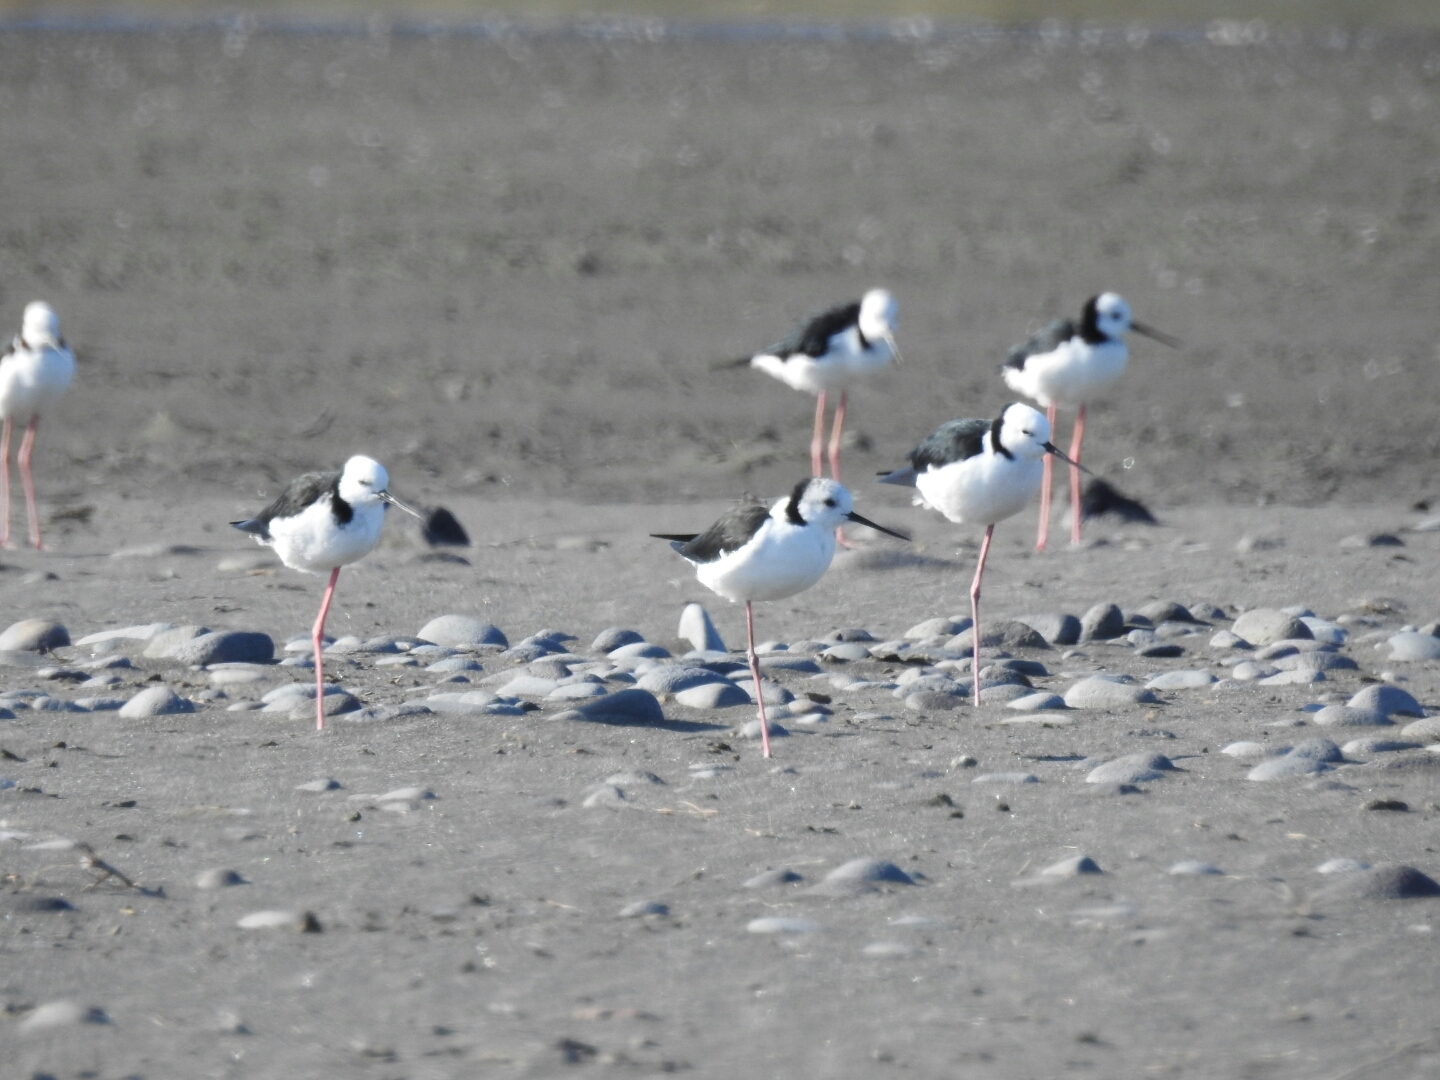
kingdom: Animalia
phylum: Chordata
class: Aves
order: Charadriiformes
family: Recurvirostridae
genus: Himantopus
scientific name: Himantopus leucocephalus
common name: White-headed stilt
